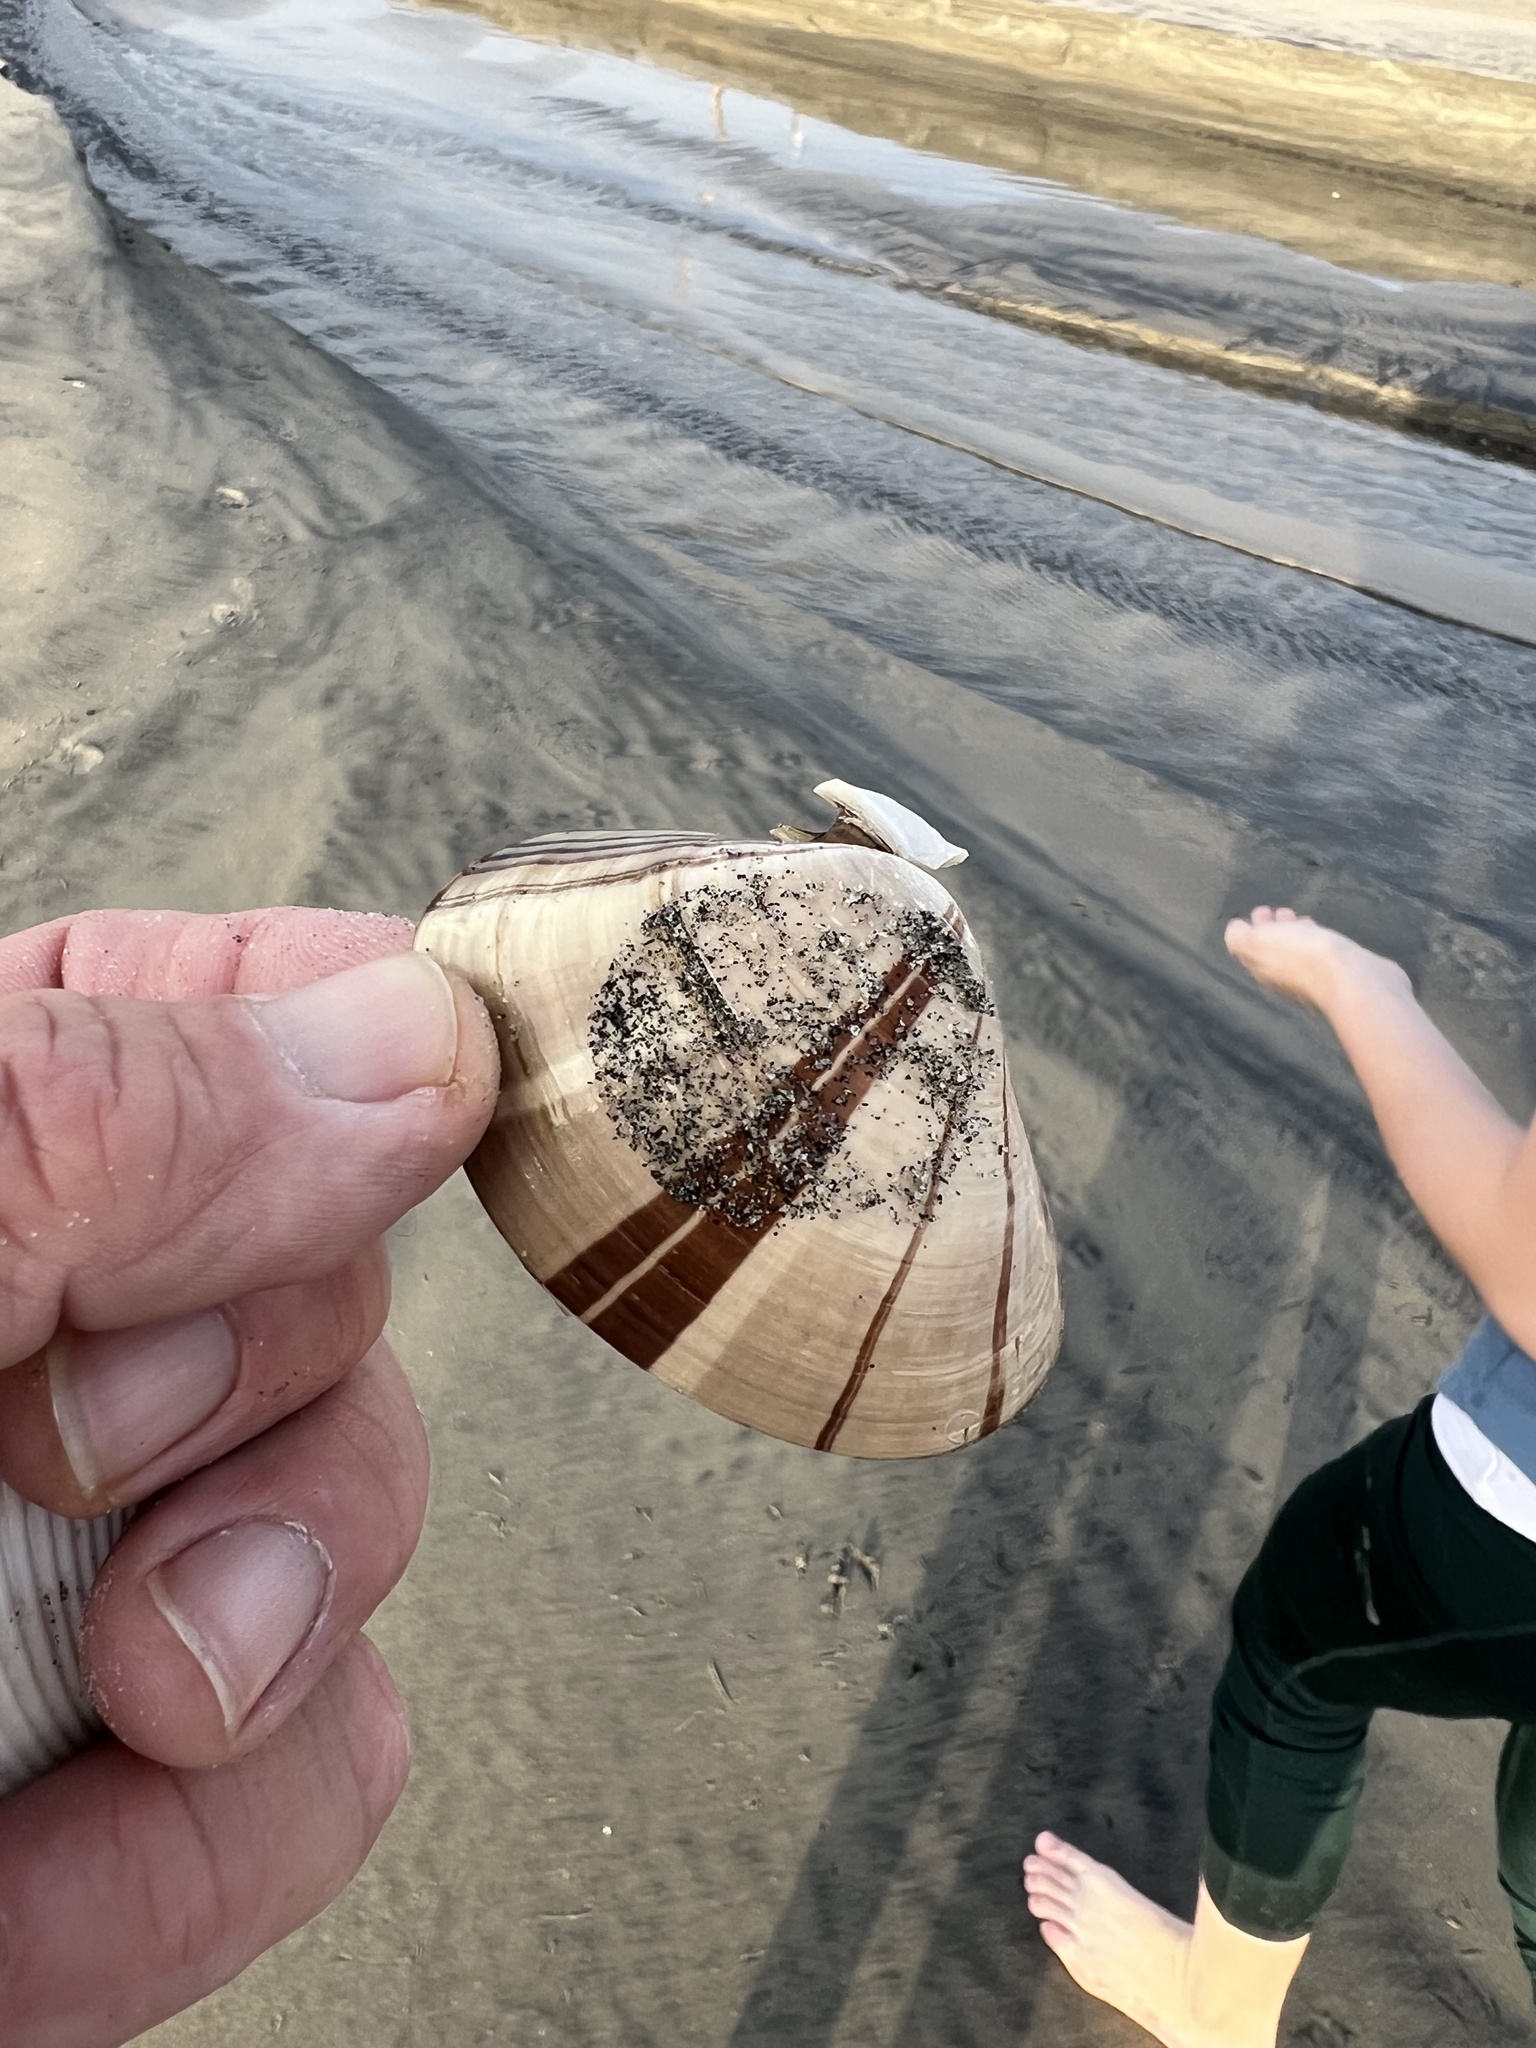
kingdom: Animalia
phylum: Mollusca
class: Bivalvia
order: Venerida
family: Veneridae
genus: Tivela
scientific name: Tivela stultorum
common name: Pismo clam
